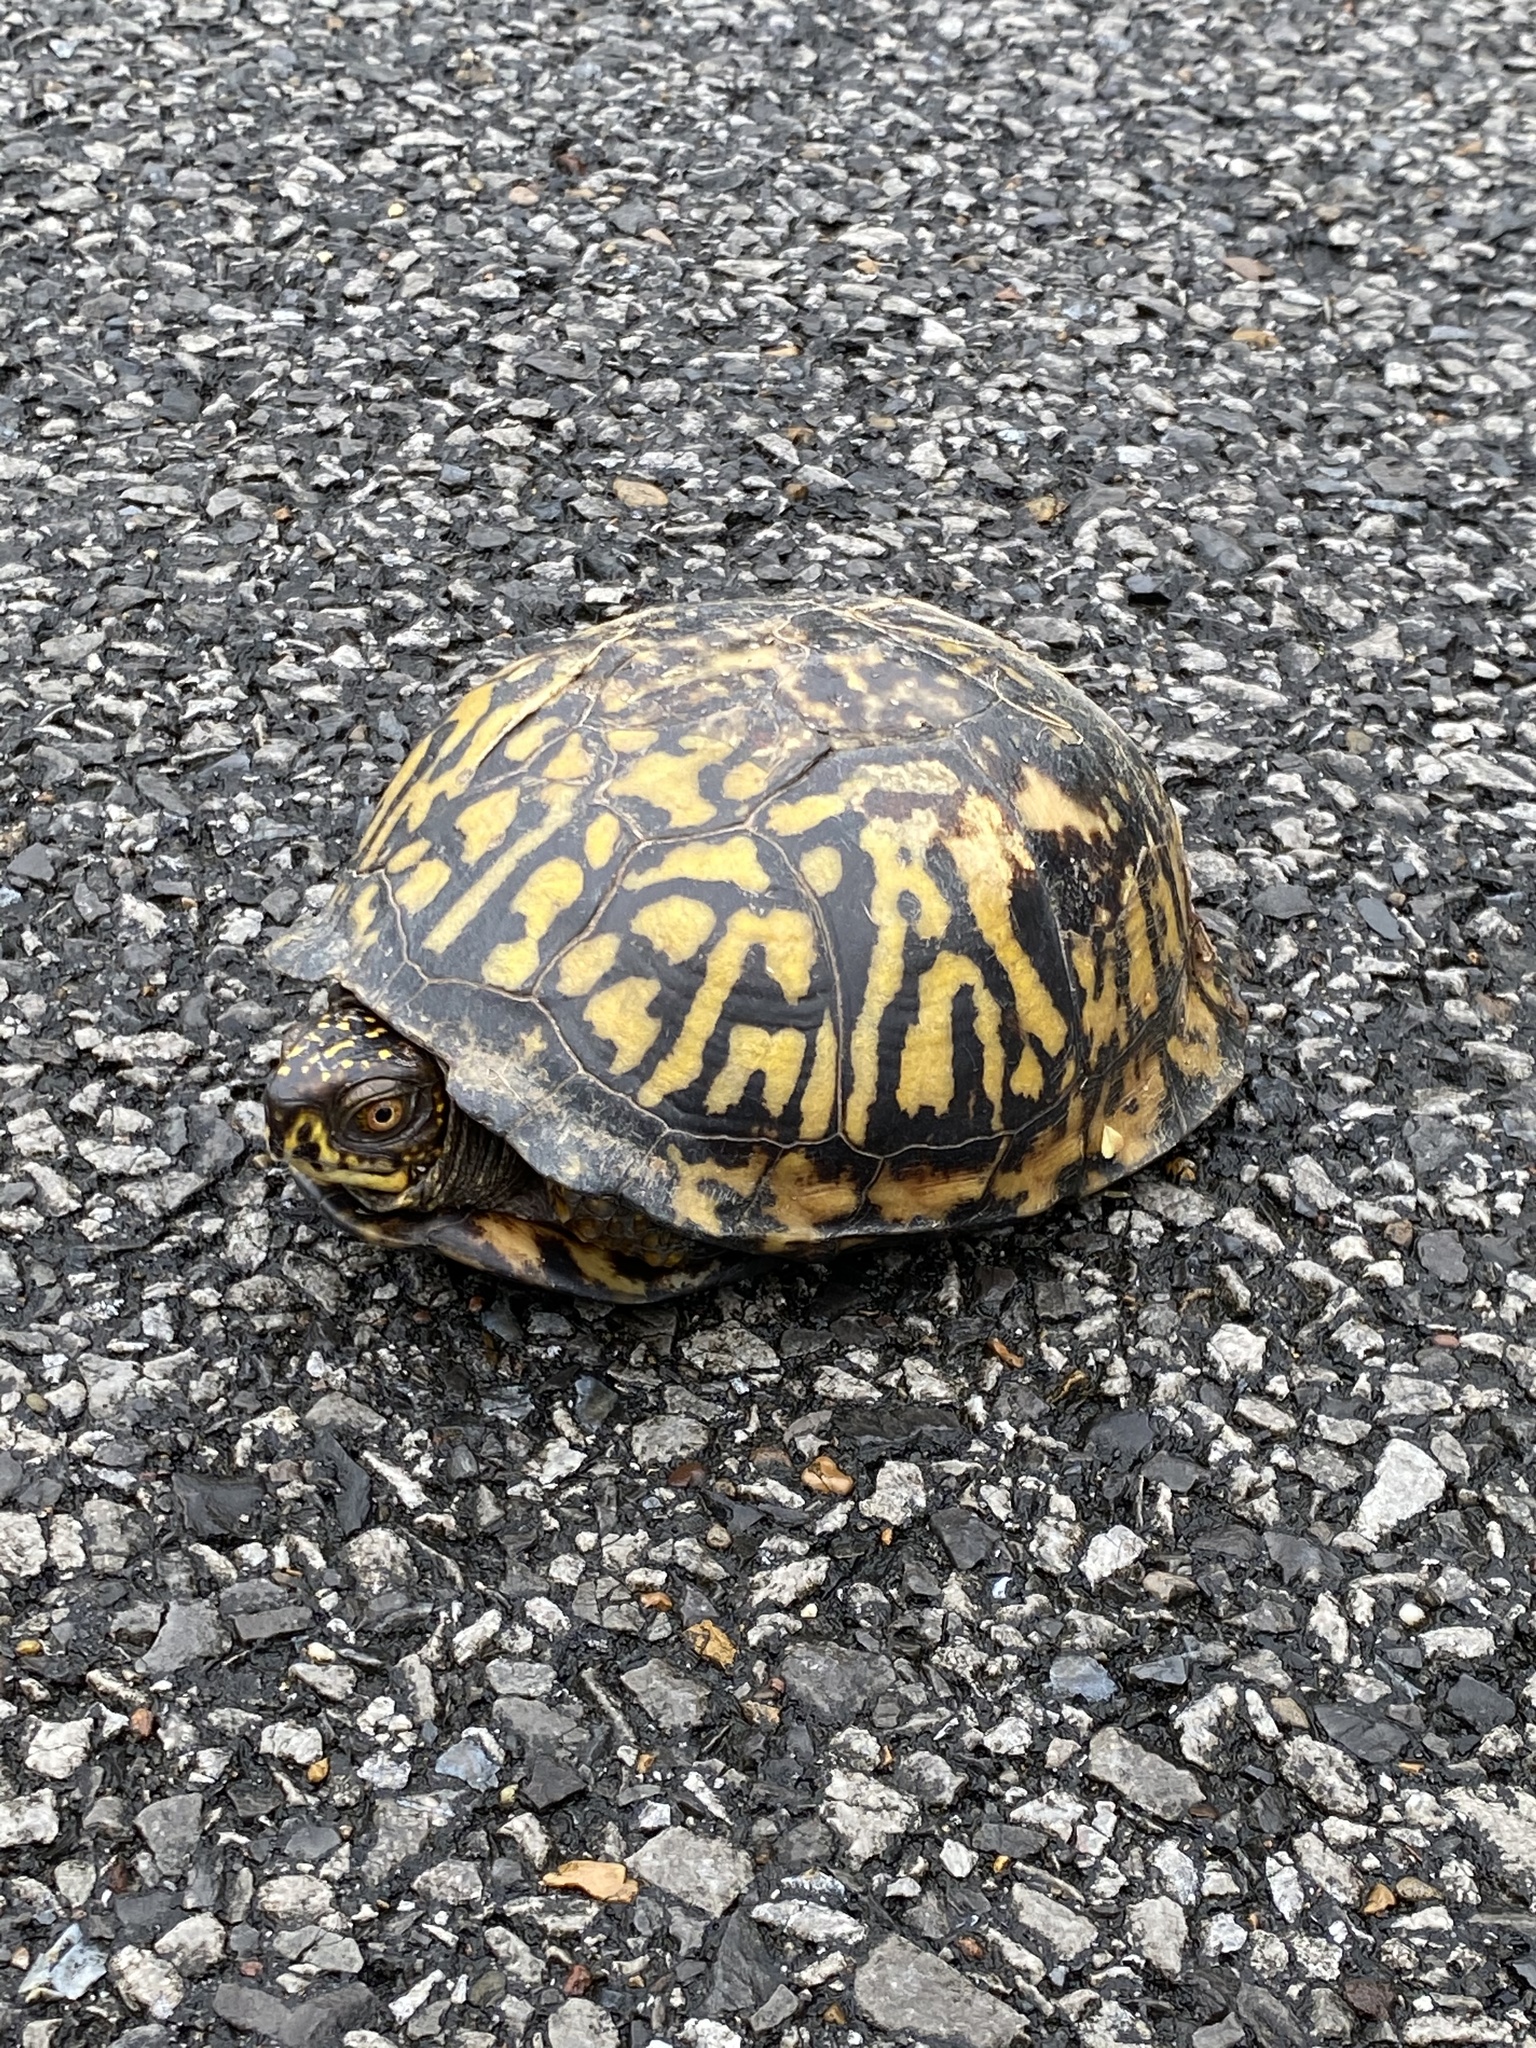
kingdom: Animalia
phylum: Chordata
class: Testudines
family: Emydidae
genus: Terrapene
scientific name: Terrapene carolina
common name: Common box turtle
